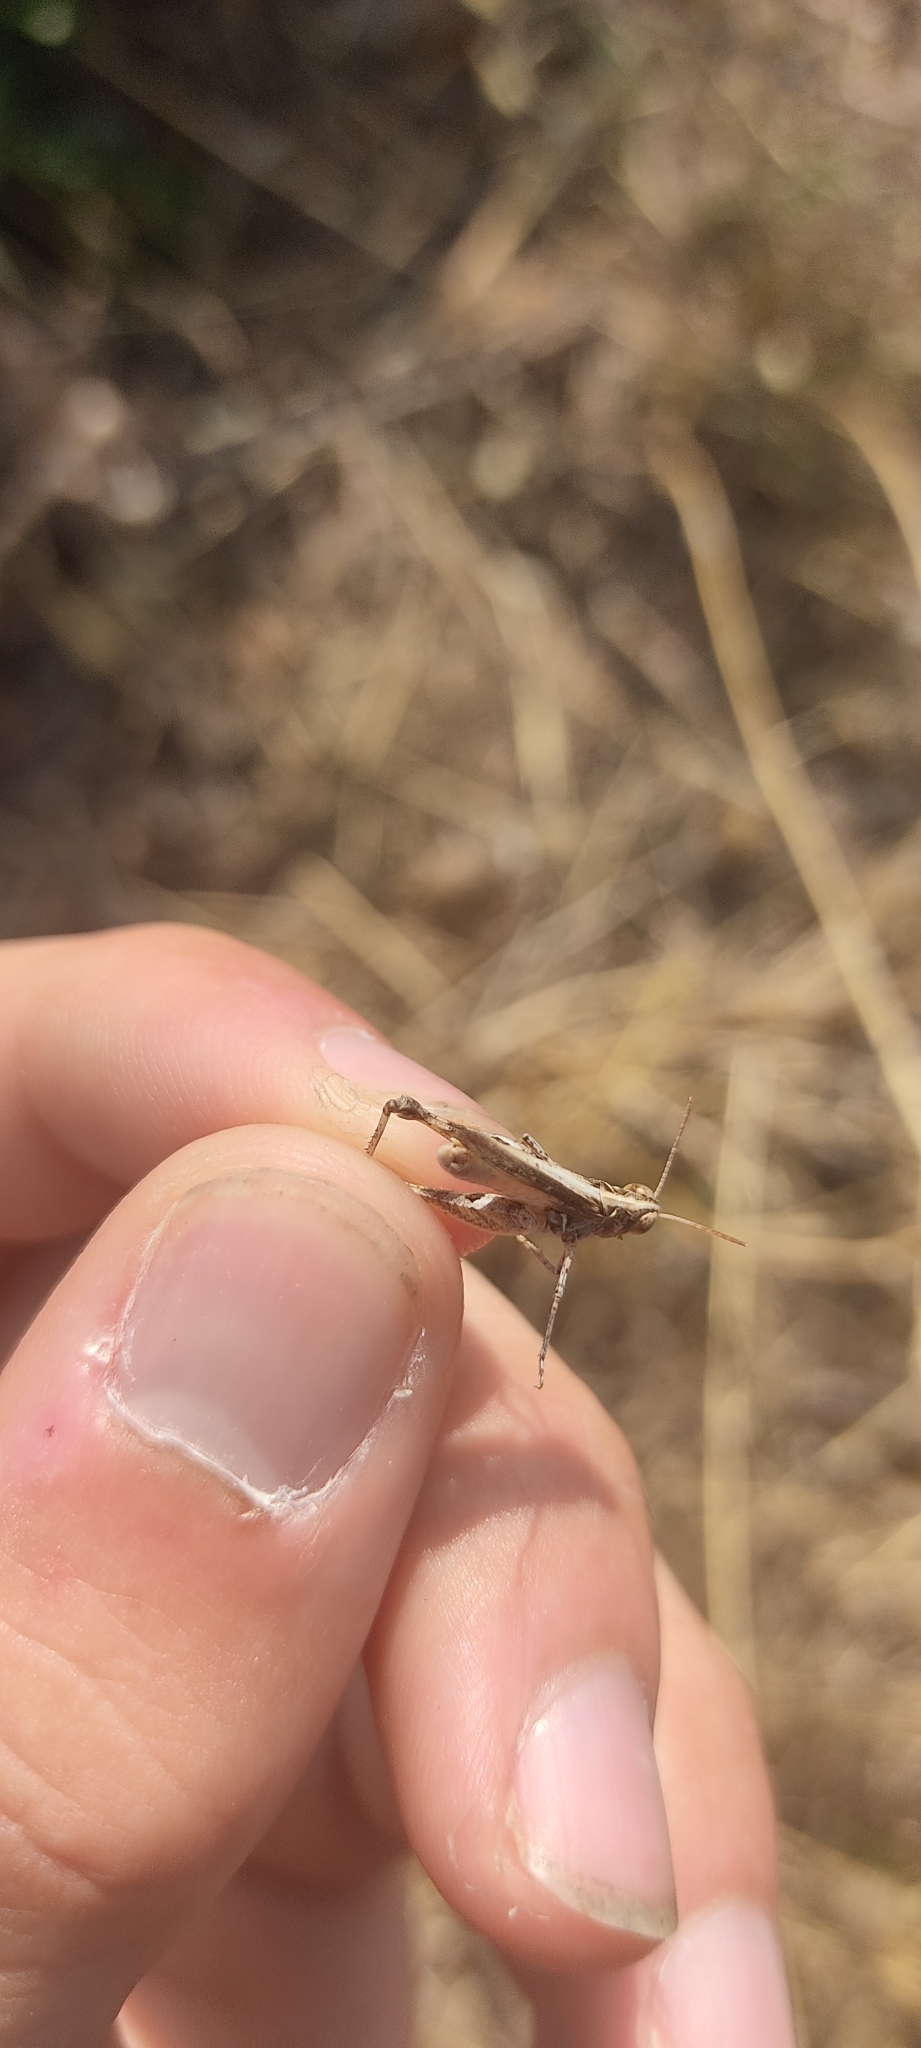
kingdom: Animalia
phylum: Arthropoda
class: Insecta
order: Orthoptera
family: Acrididae
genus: Dociostaurus
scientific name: Dociostaurus jagoi
